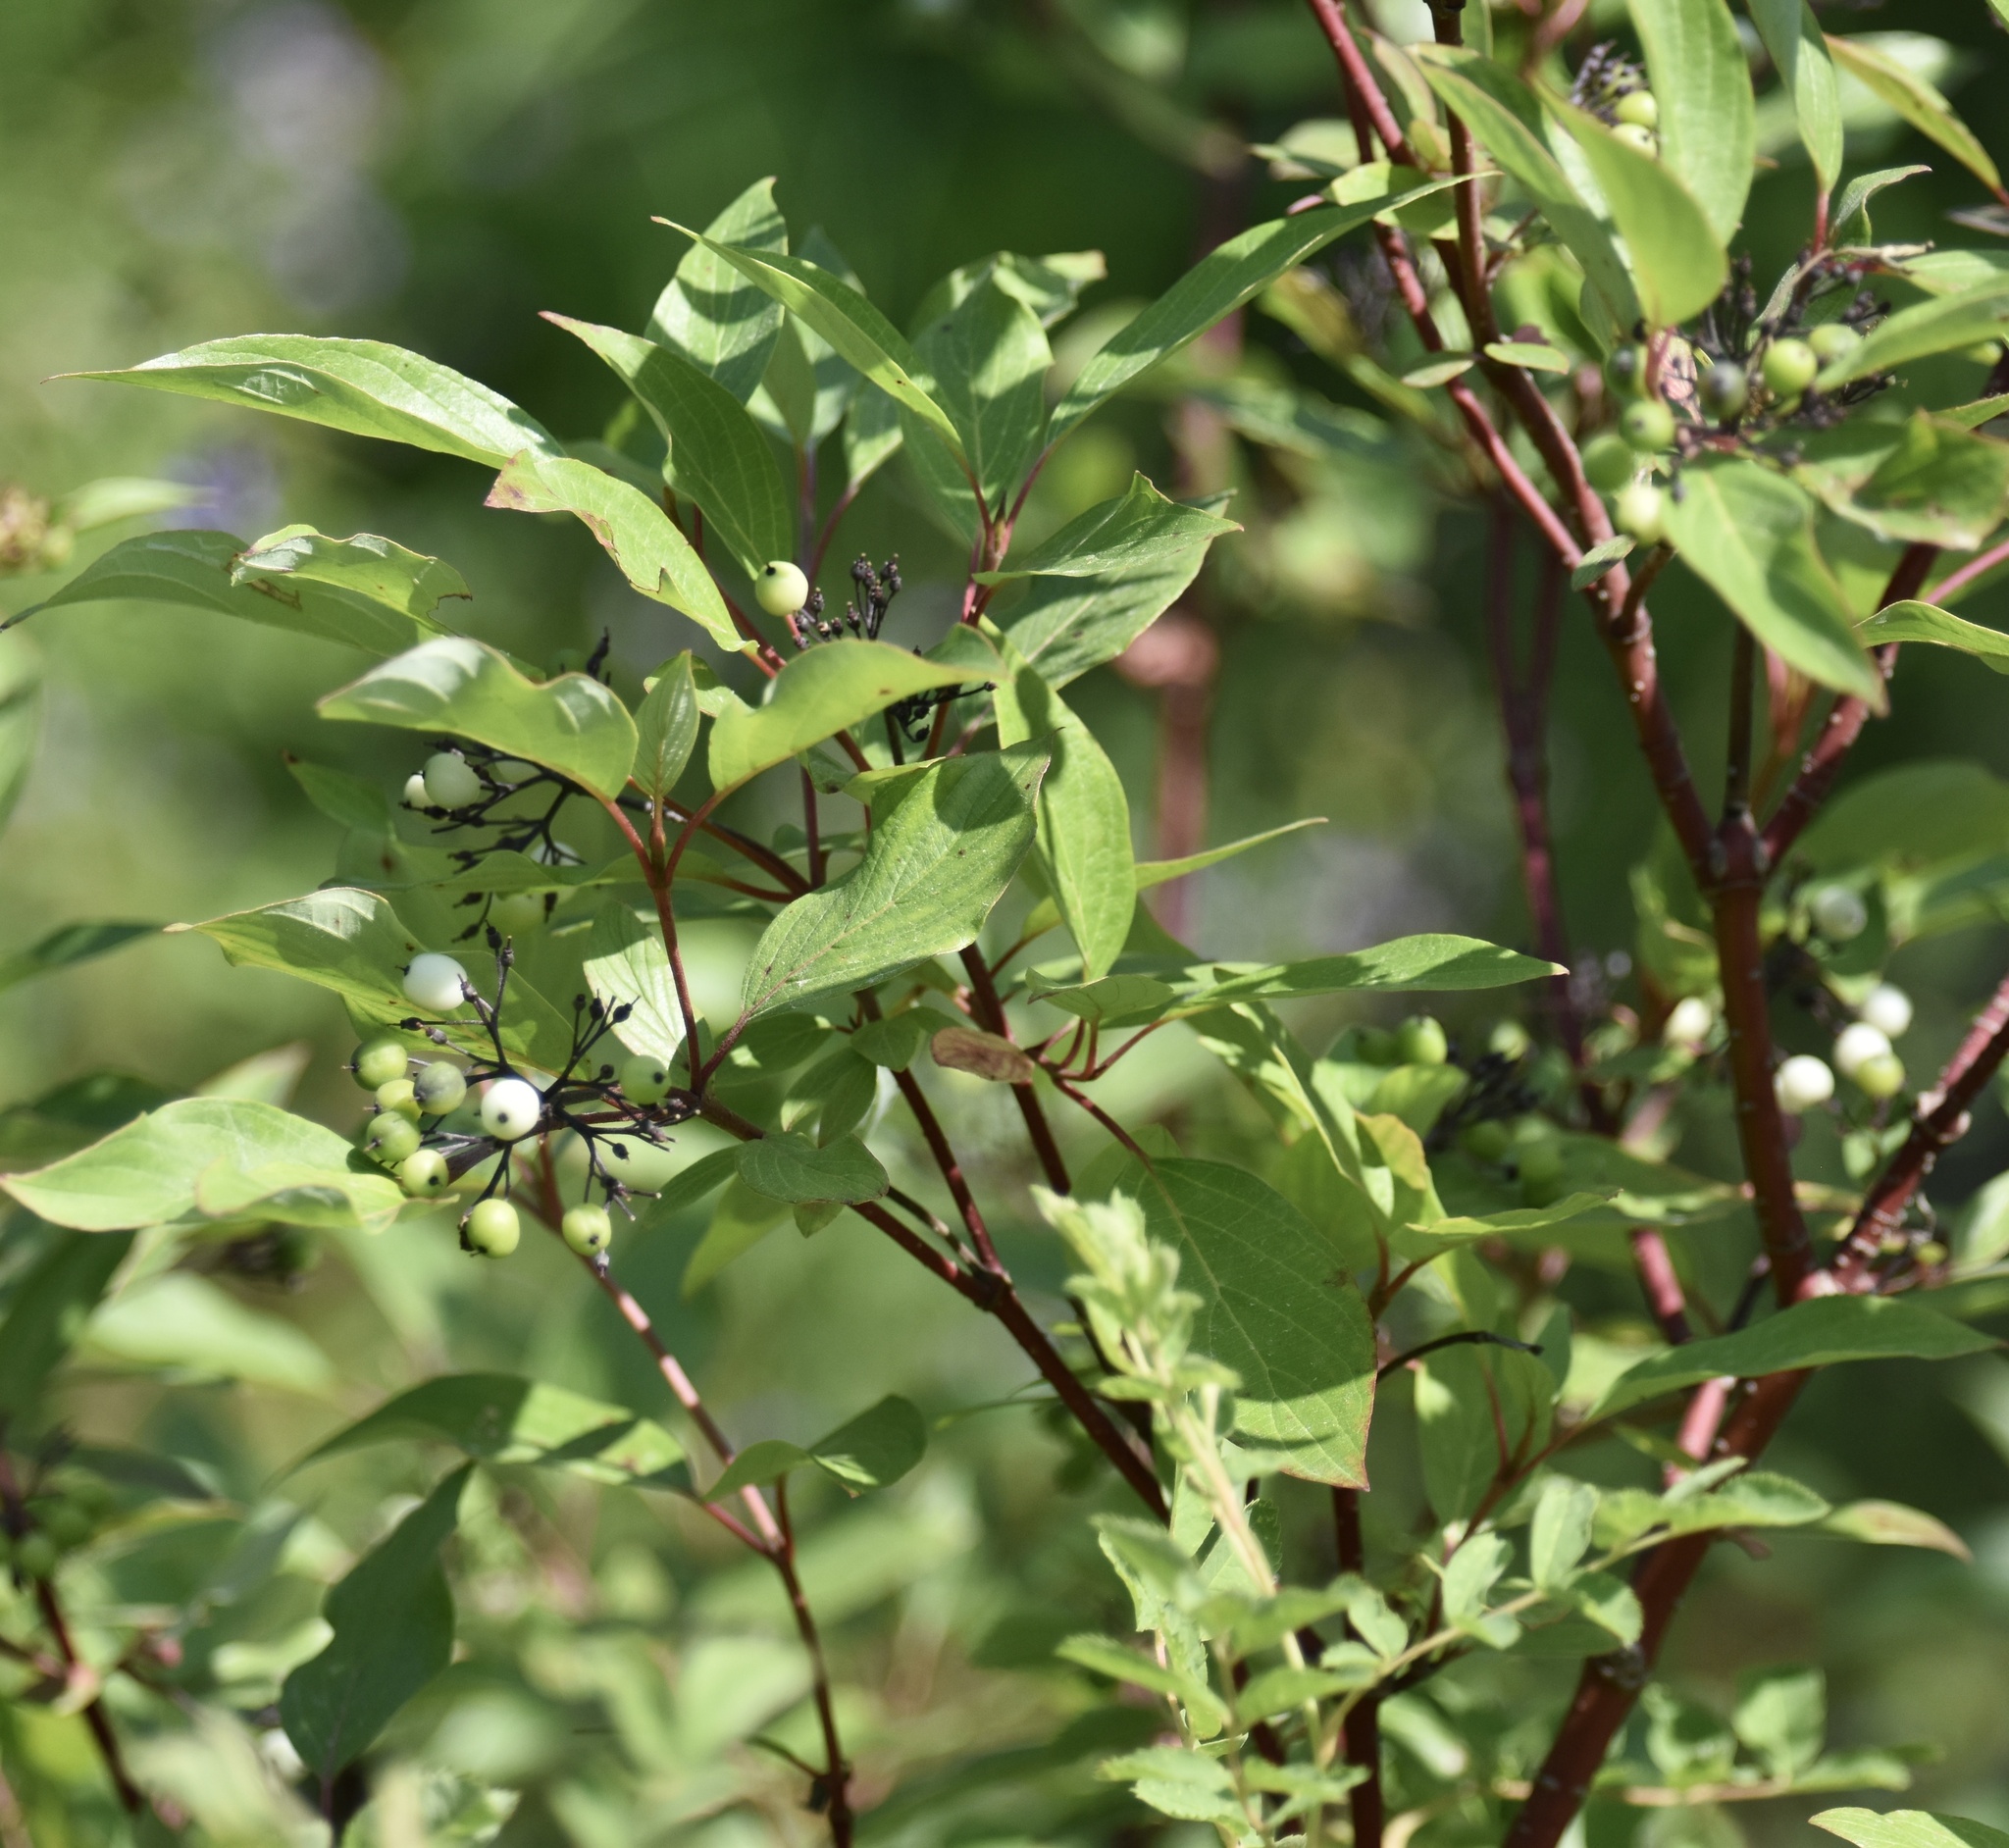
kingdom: Plantae
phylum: Tracheophyta
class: Magnoliopsida
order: Cornales
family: Cornaceae
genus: Cornus
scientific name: Cornus sericea
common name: Red-osier dogwood
